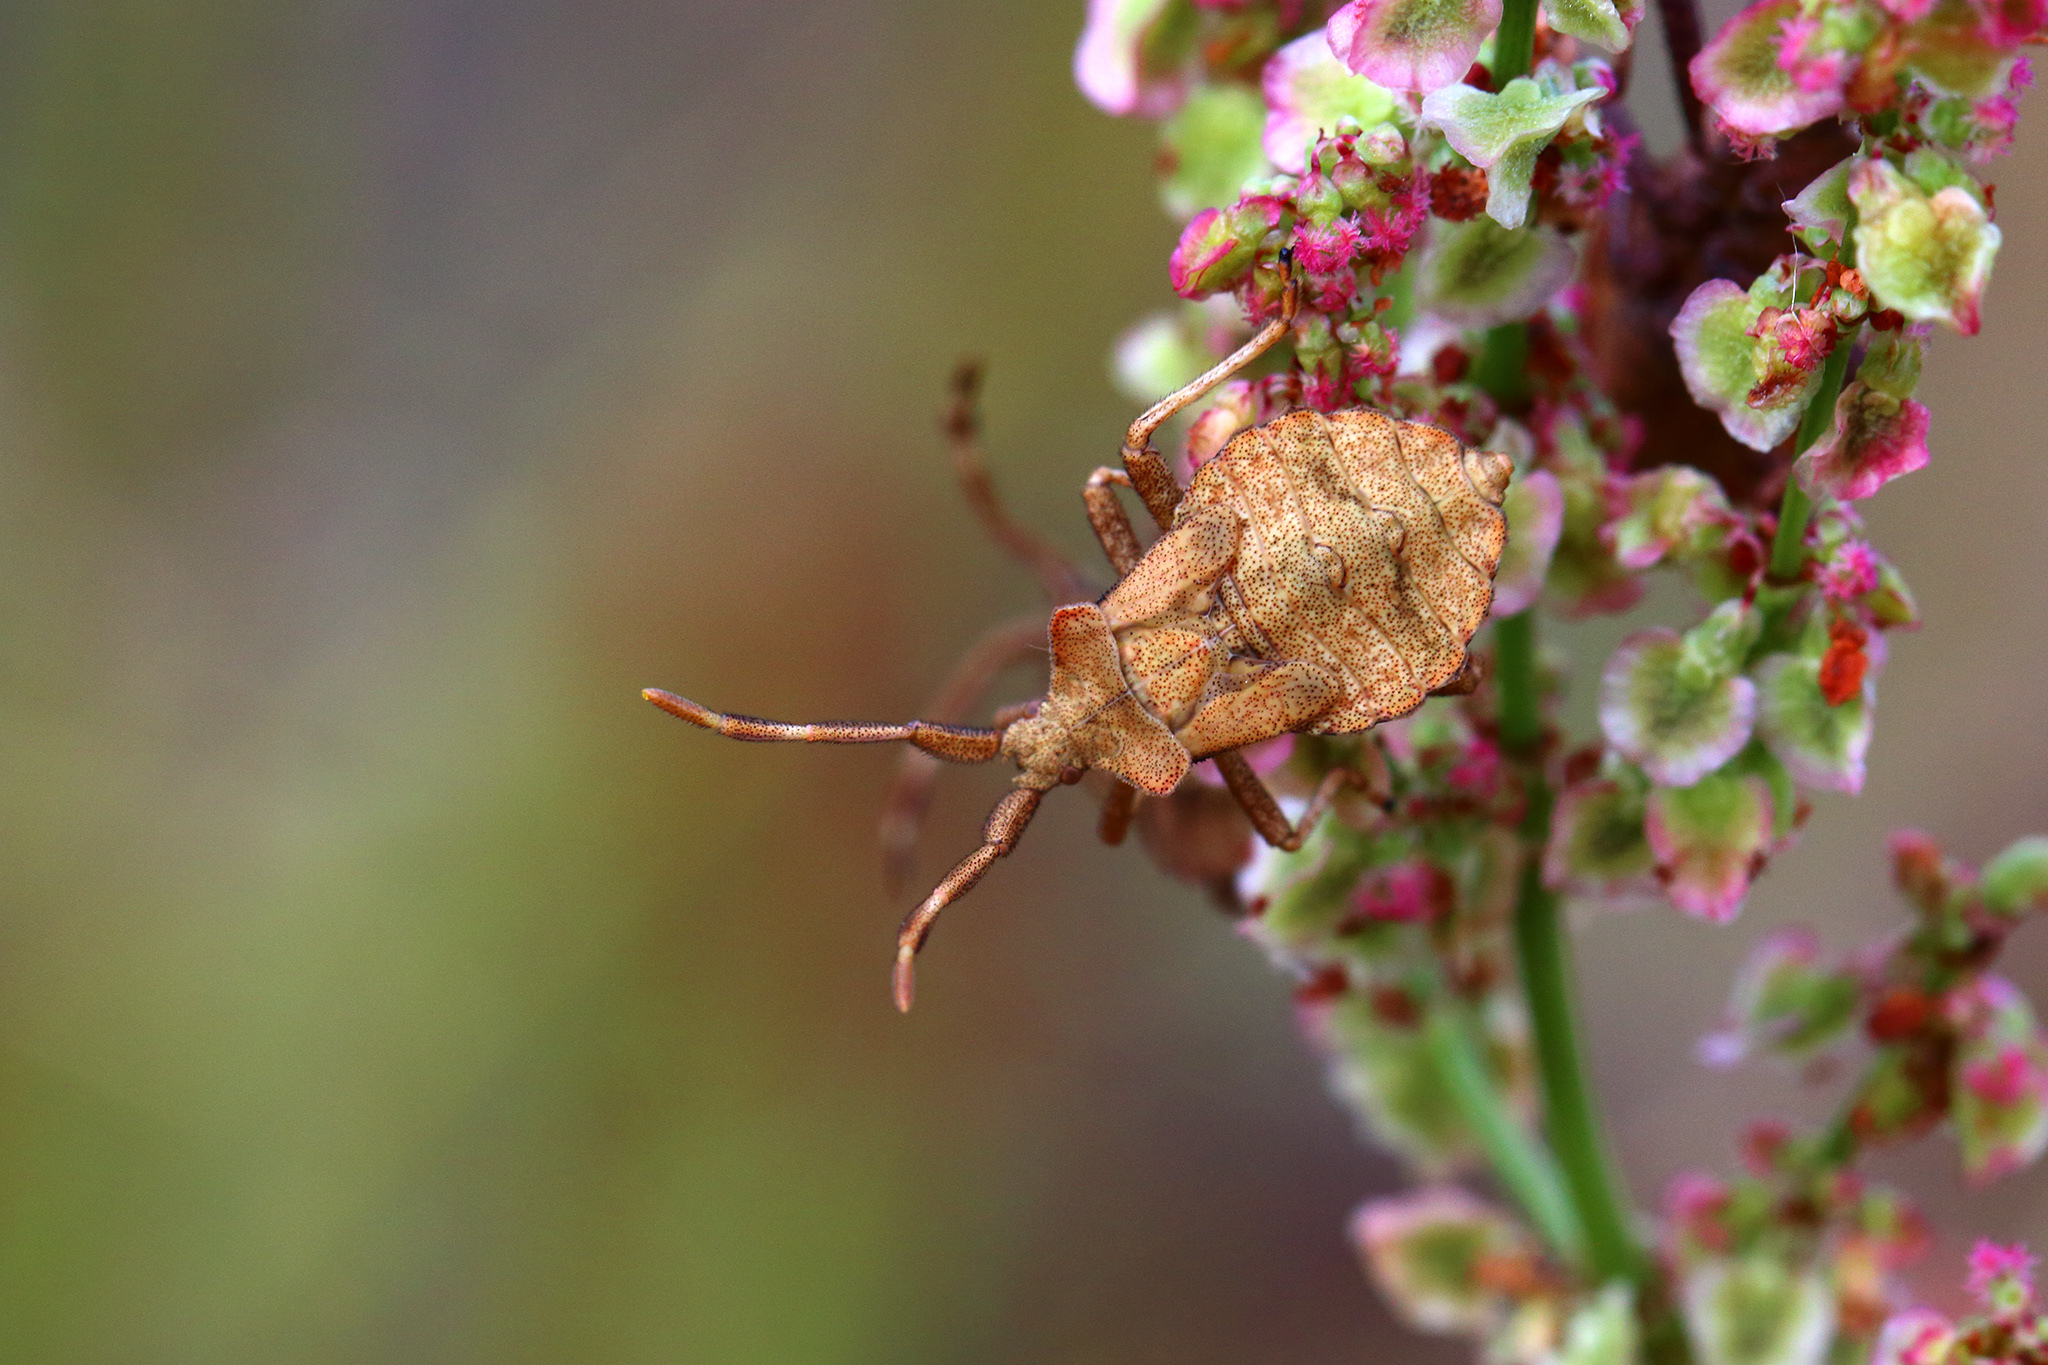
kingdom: Animalia
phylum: Arthropoda
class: Insecta
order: Hemiptera
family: Coreidae
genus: Coreus
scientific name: Coreus marginatus
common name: Dock bug
